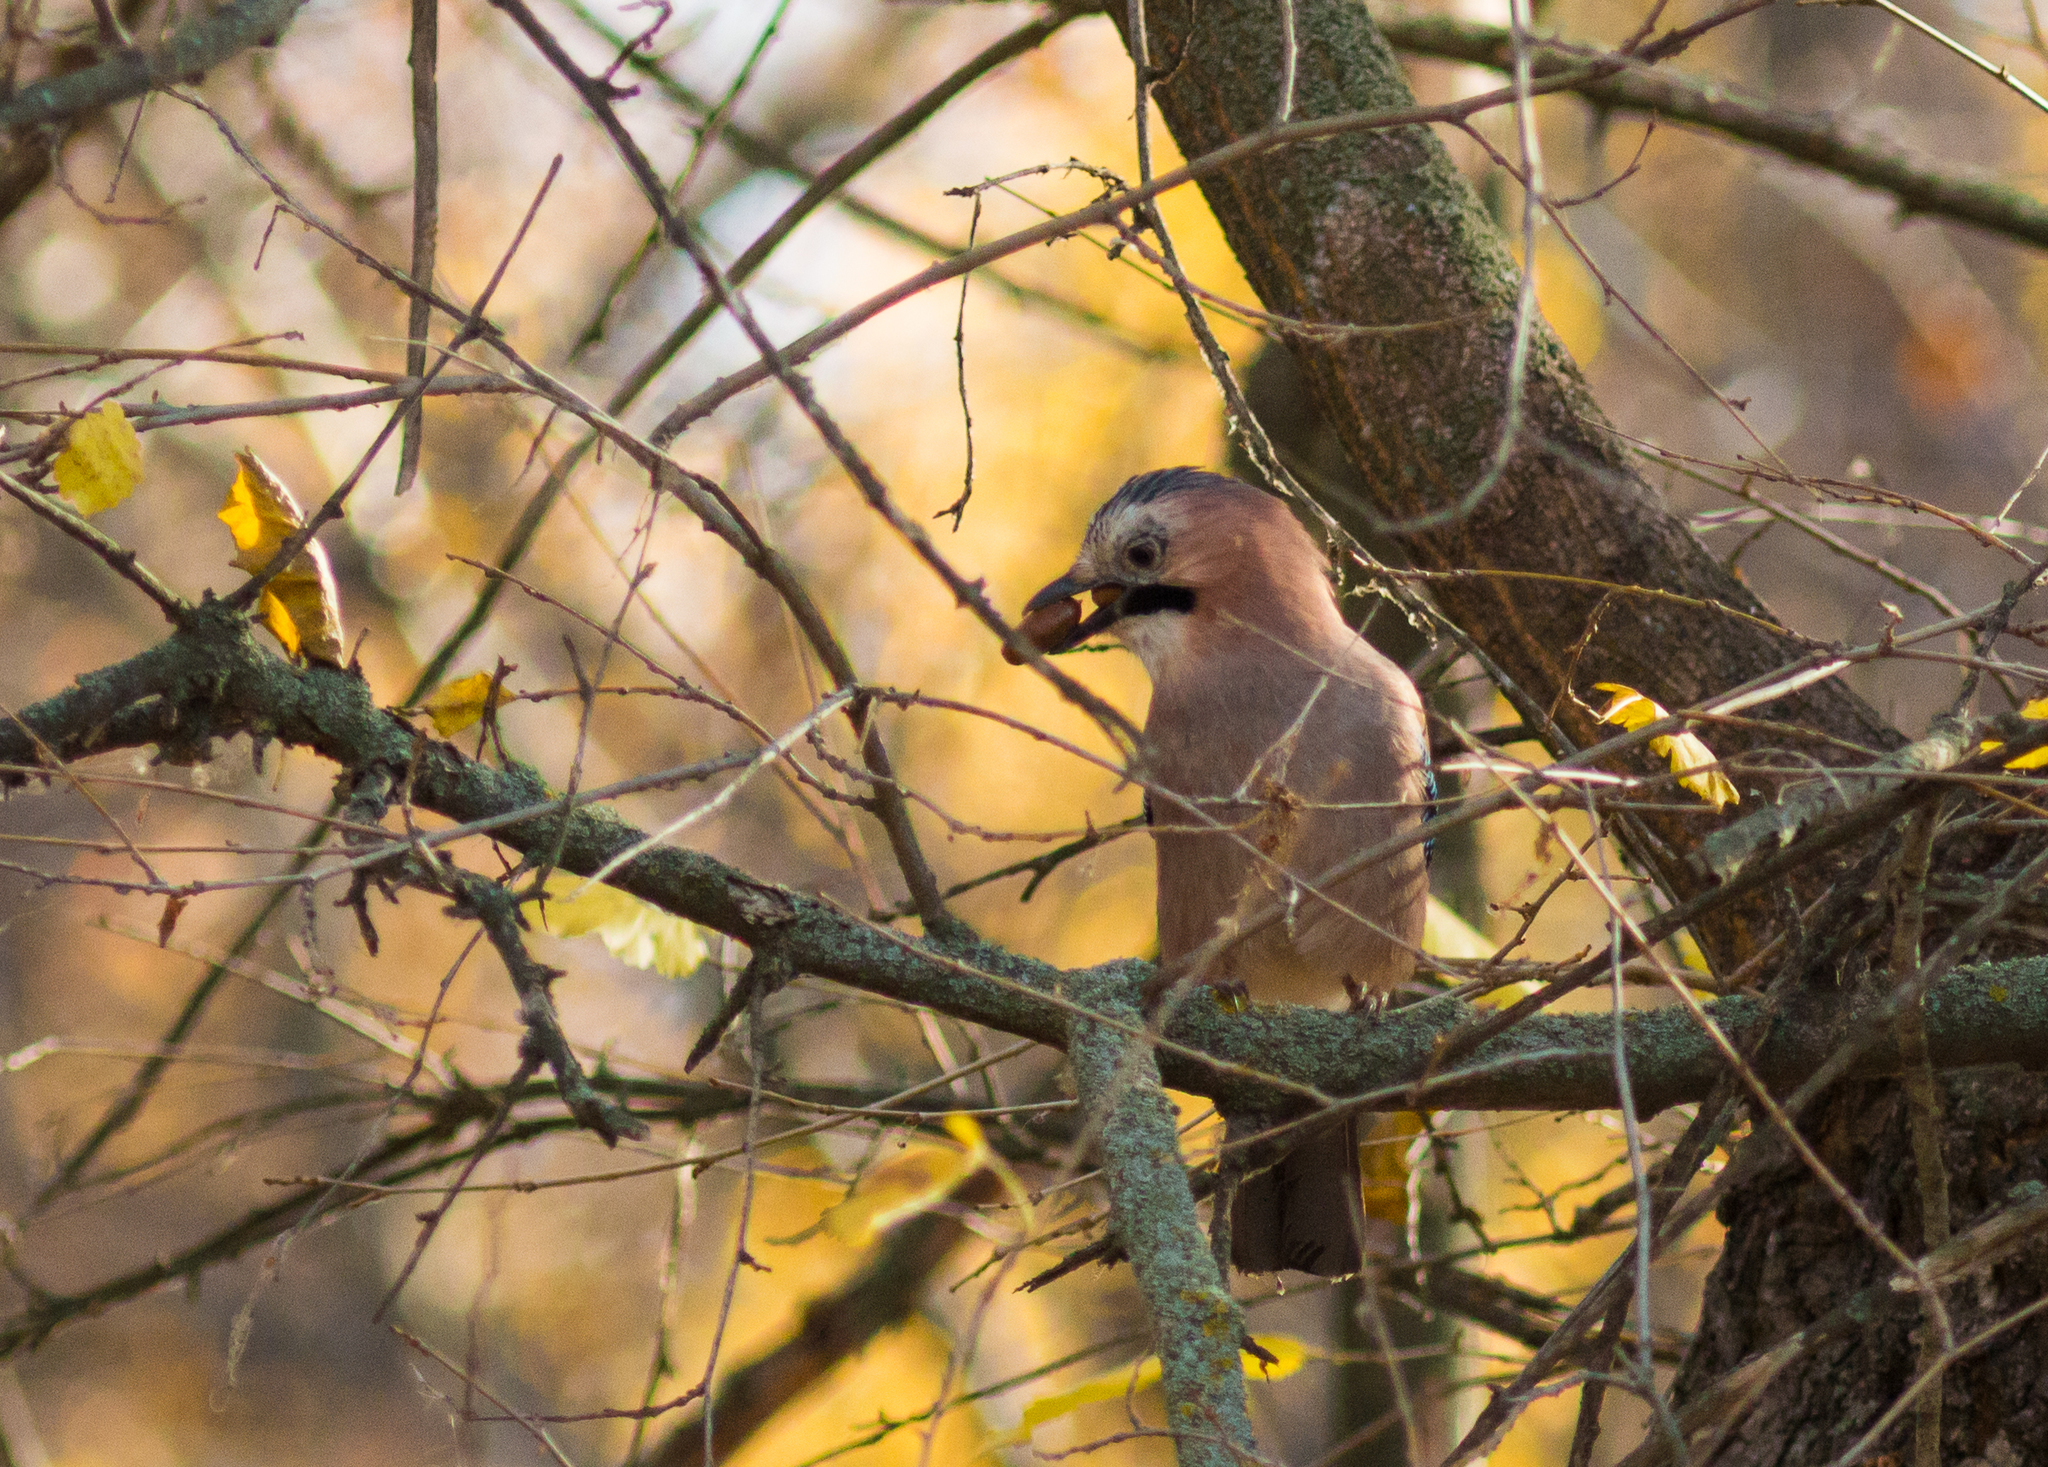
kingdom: Animalia
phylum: Chordata
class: Aves
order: Passeriformes
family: Corvidae
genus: Garrulus
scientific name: Garrulus glandarius
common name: Eurasian jay
